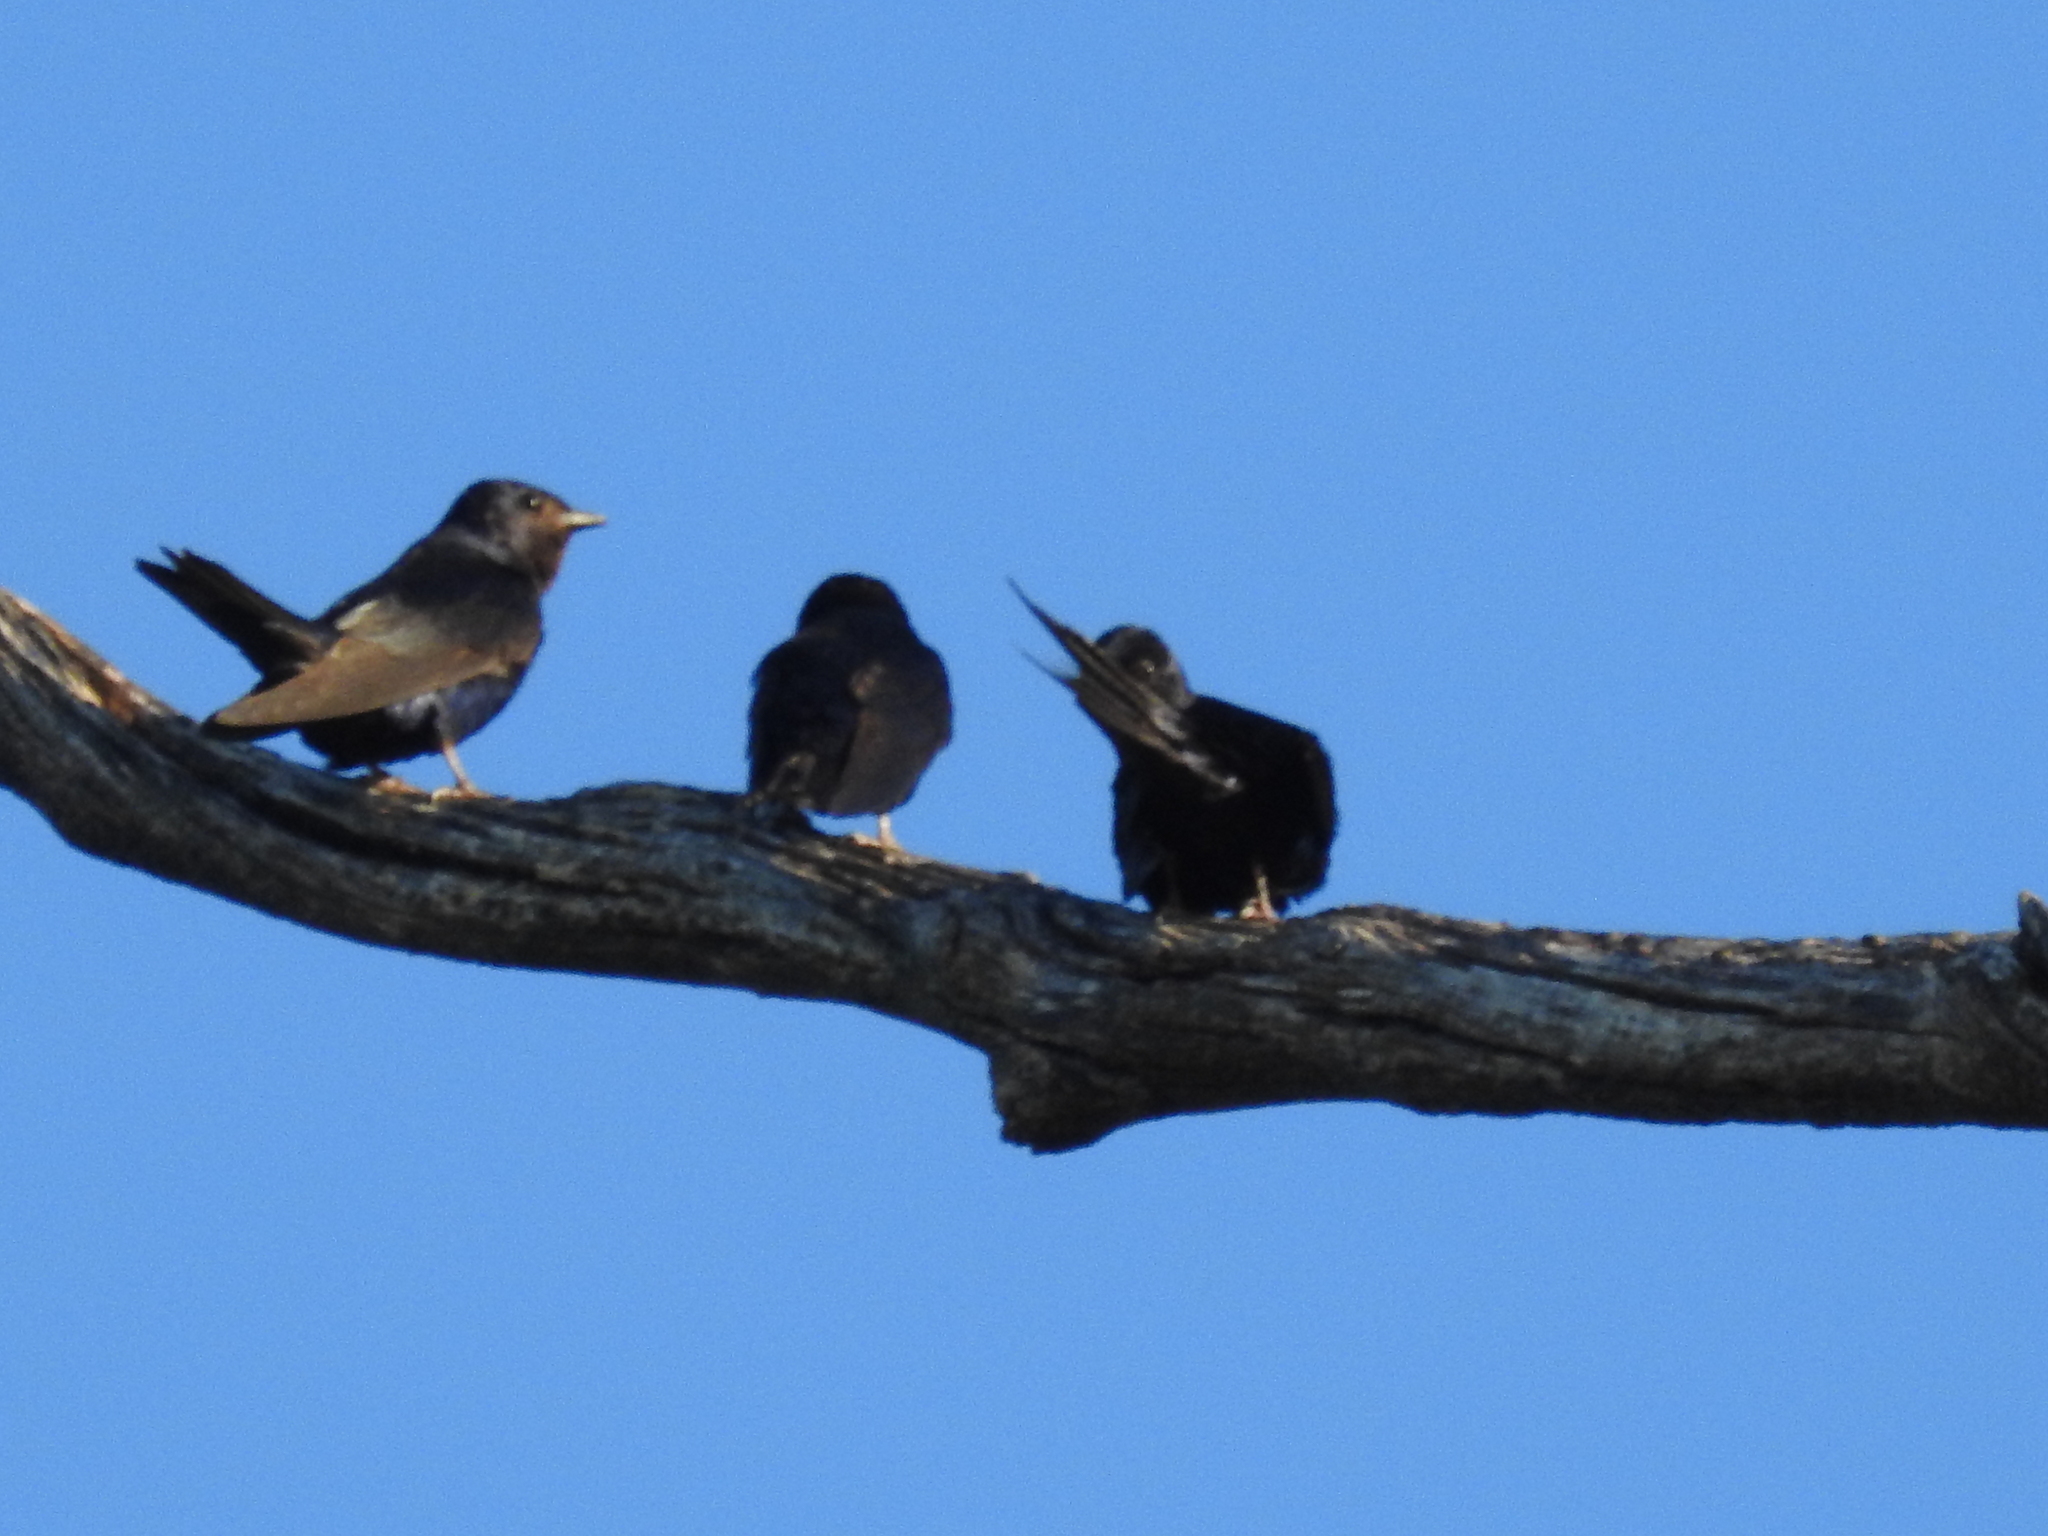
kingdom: Animalia
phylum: Chordata
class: Aves
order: Passeriformes
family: Hirundinidae
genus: Progne
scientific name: Progne elegans
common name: Southern martin
